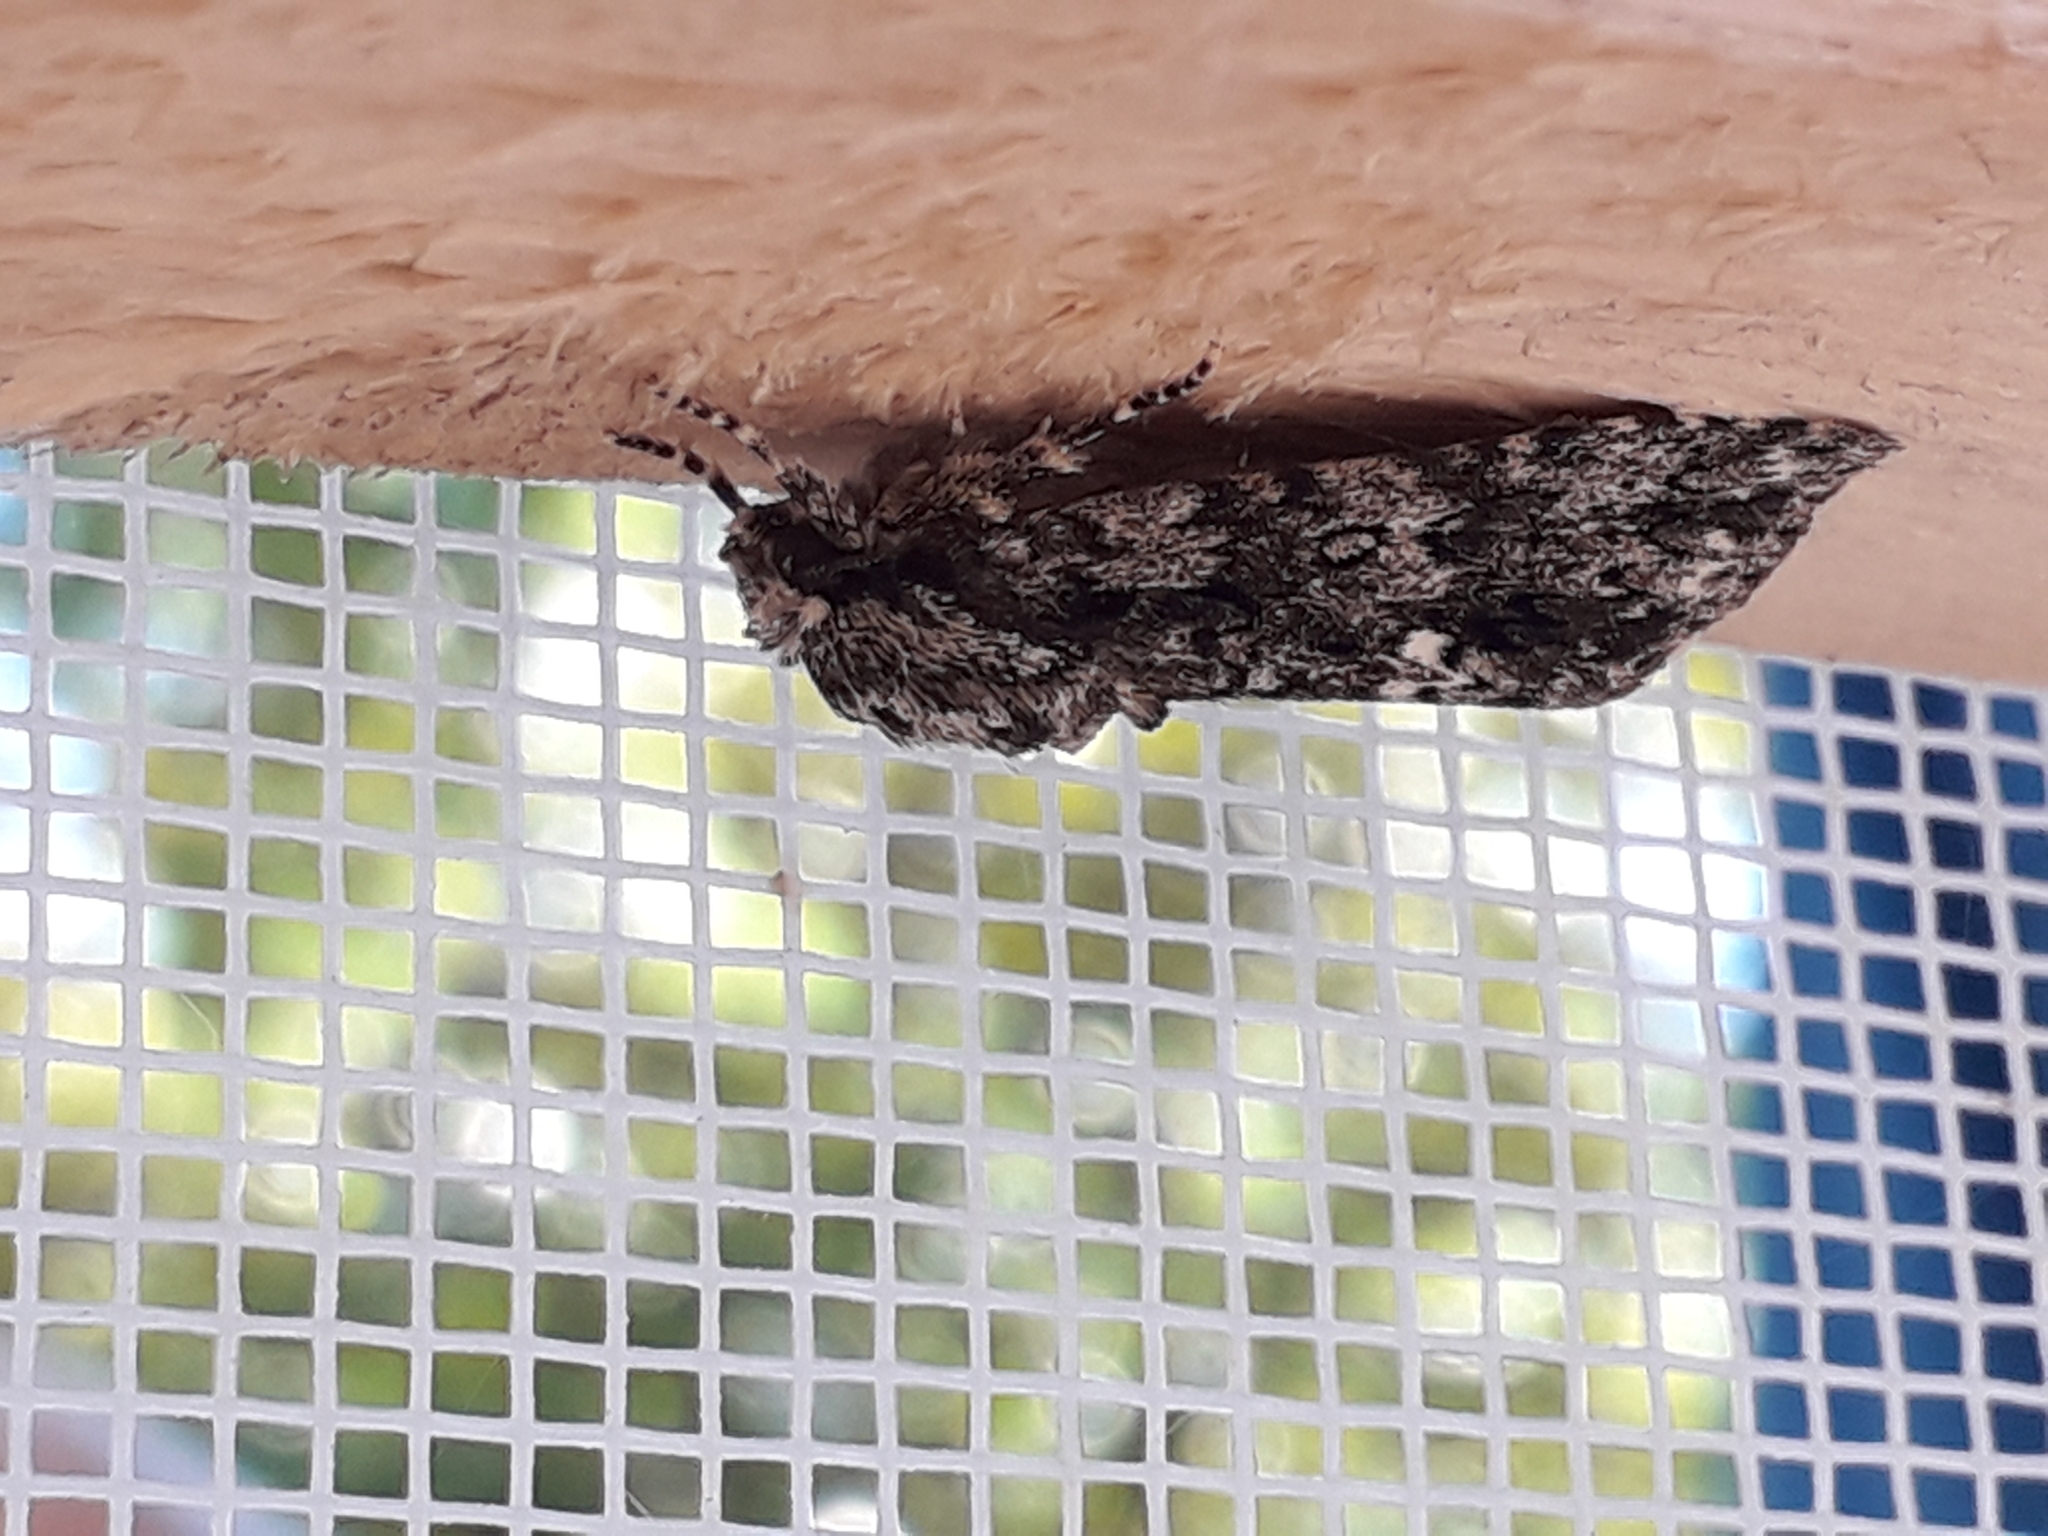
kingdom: Animalia
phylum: Arthropoda
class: Insecta
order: Lepidoptera
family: Noctuidae
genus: Acronicta
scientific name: Acronicta rumicis
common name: Knot grass
